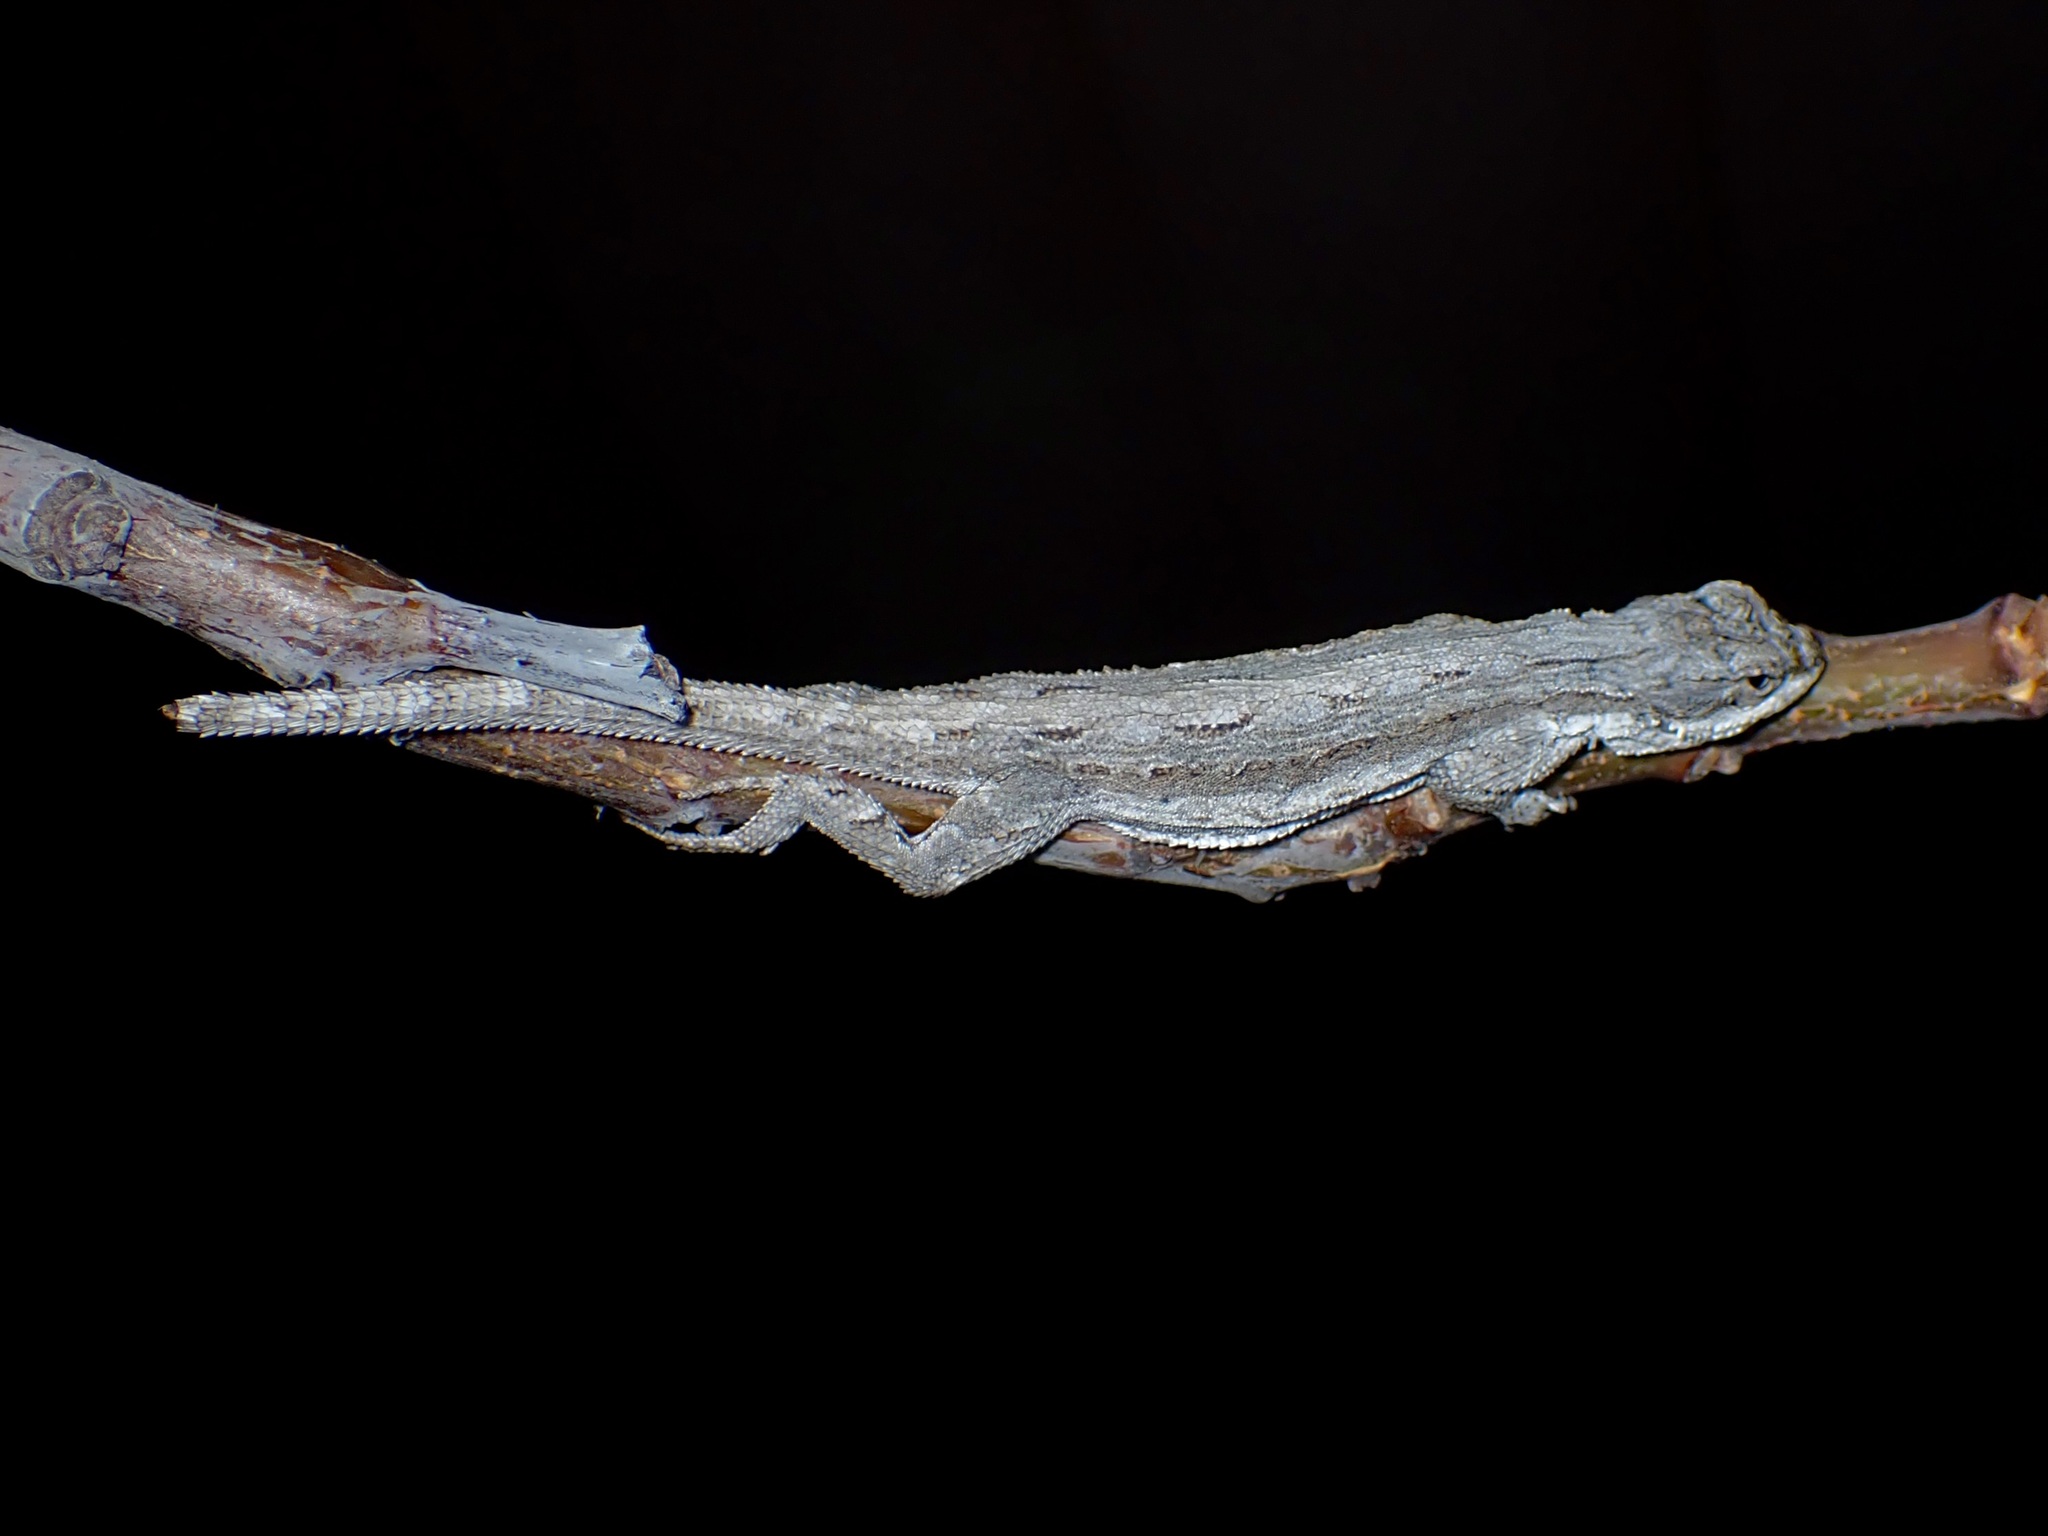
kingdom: Animalia
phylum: Chordata
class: Squamata
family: Phrynosomatidae
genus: Urosaurus
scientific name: Urosaurus ornatus
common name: Ornate tree lizard
